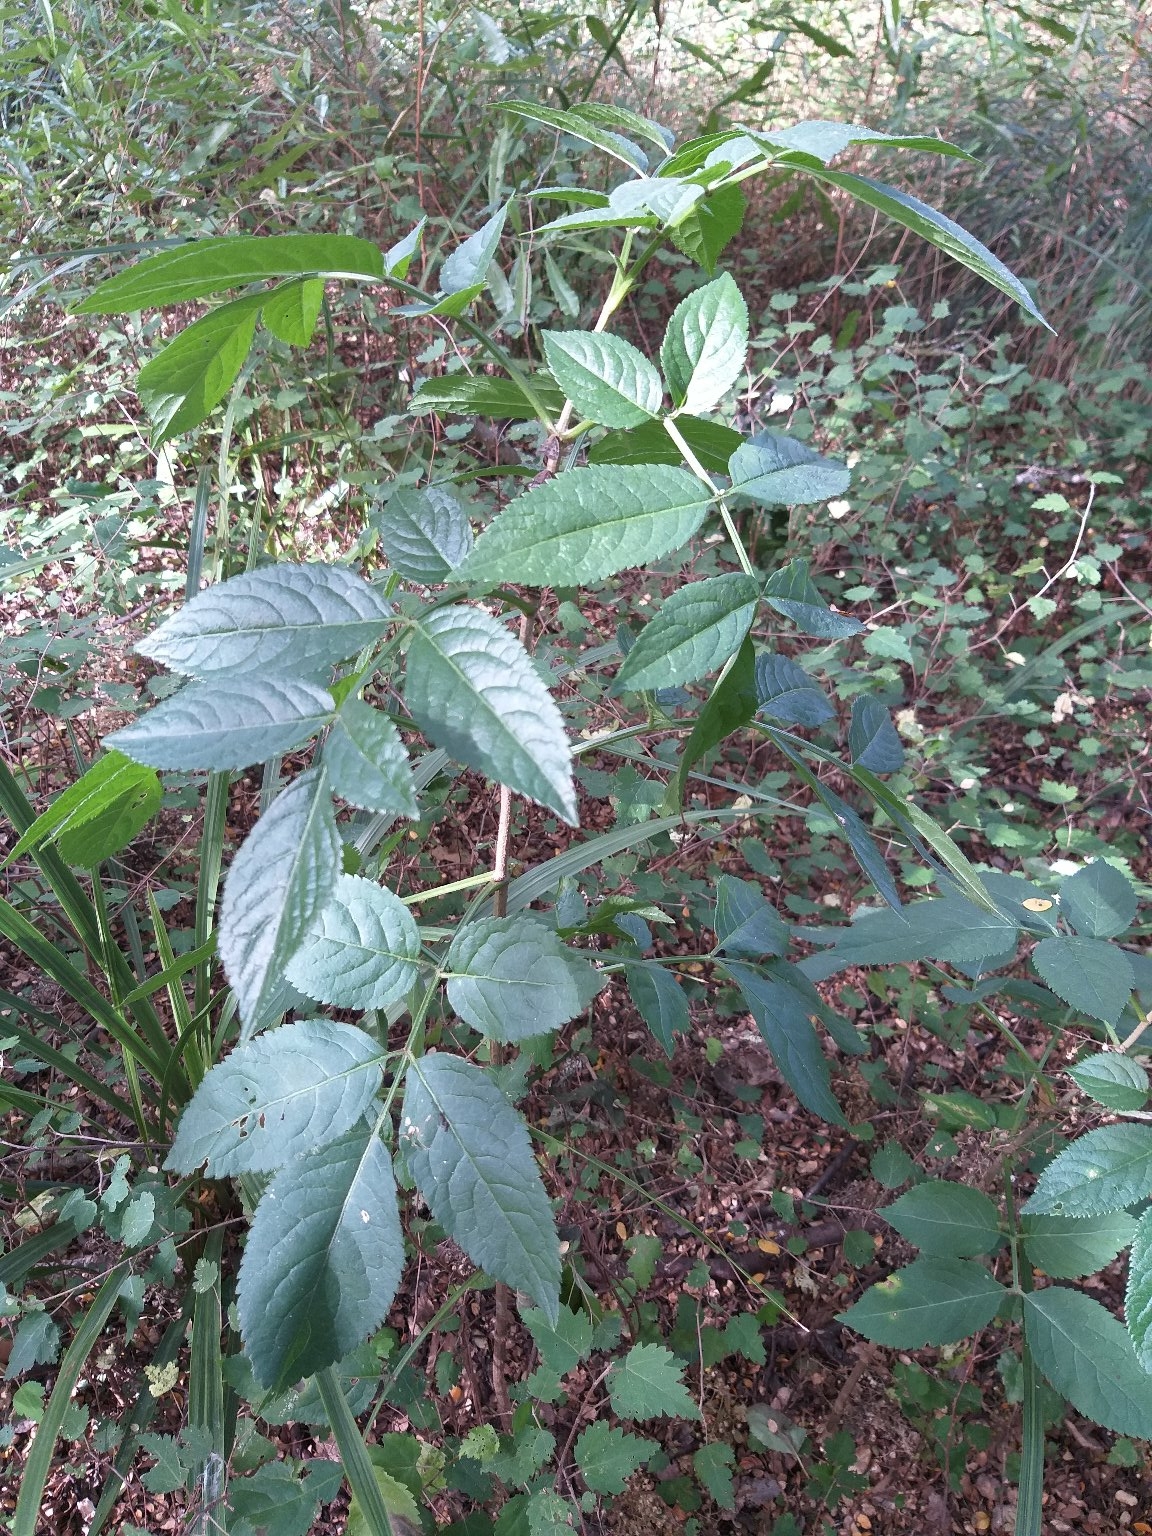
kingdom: Plantae
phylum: Tracheophyta
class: Magnoliopsida
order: Dipsacales
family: Viburnaceae
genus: Sambucus
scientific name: Sambucus nigra
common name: Elder
